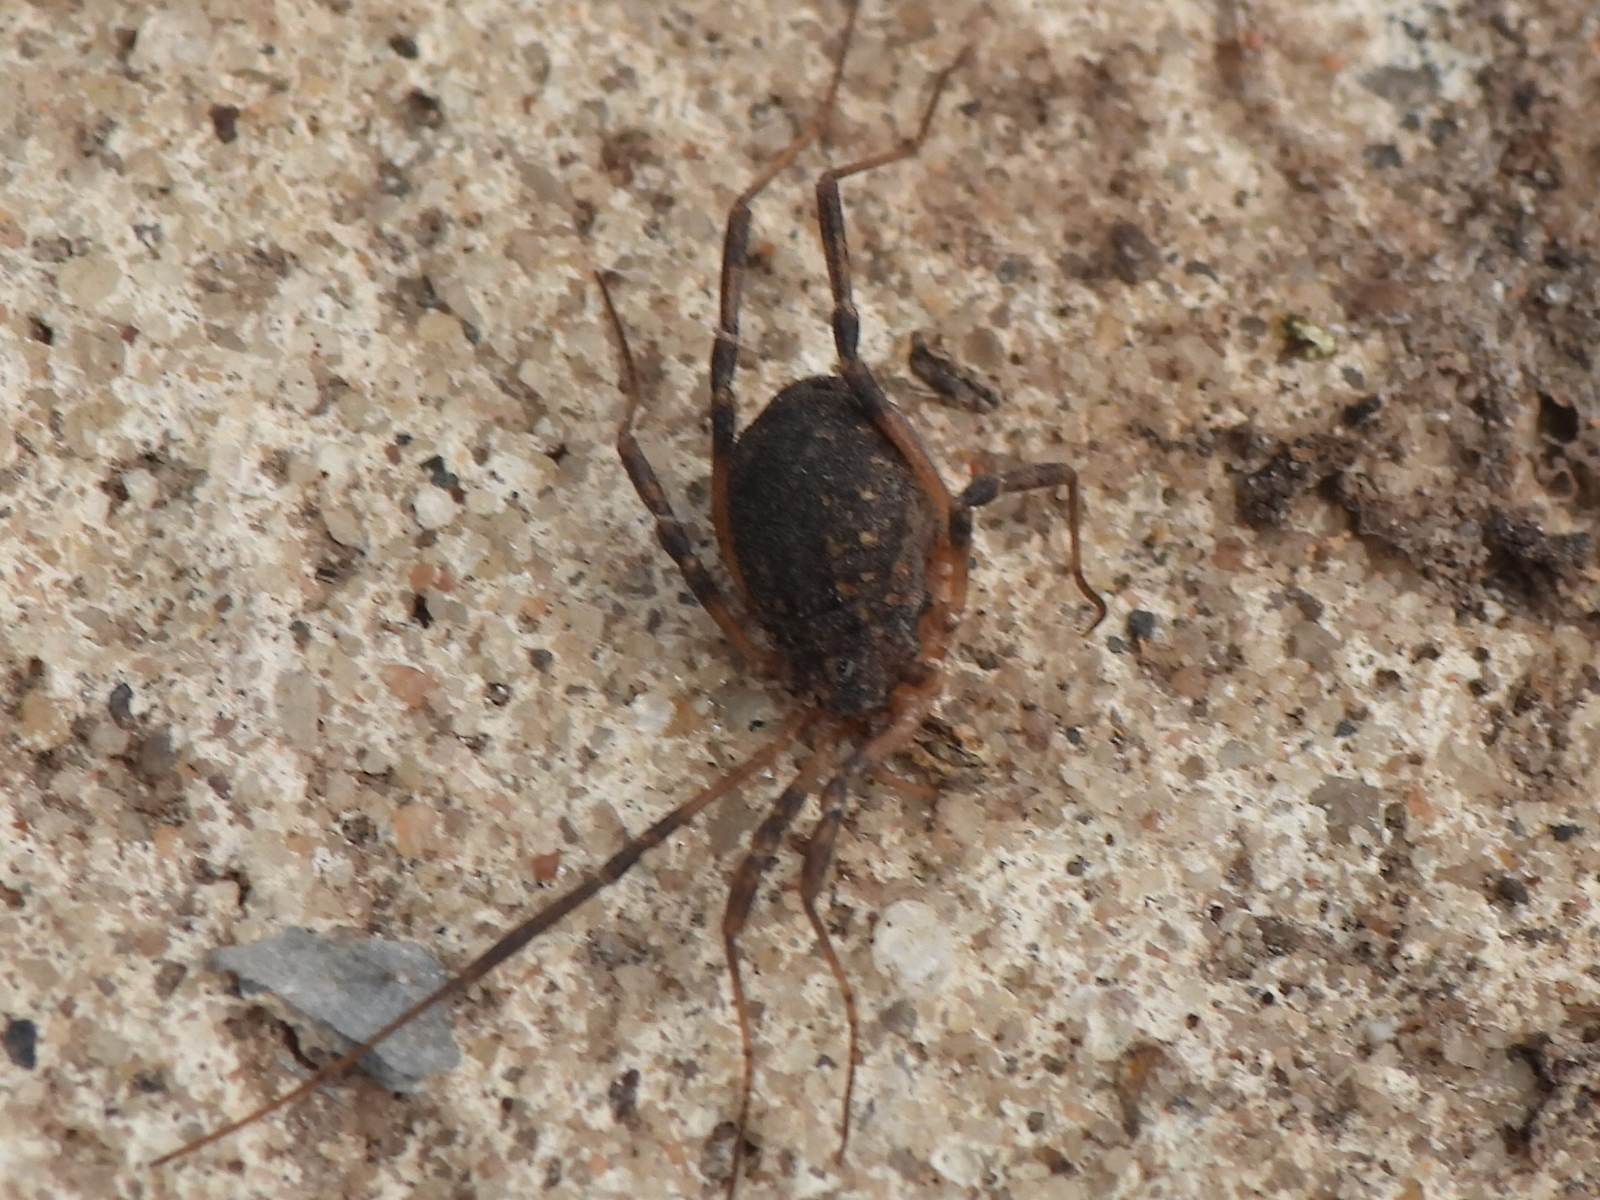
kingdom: Animalia
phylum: Arthropoda
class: Arachnida
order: Opiliones
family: Sclerosomatidae
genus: Eumesosoma
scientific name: Eumesosoma roeweri
